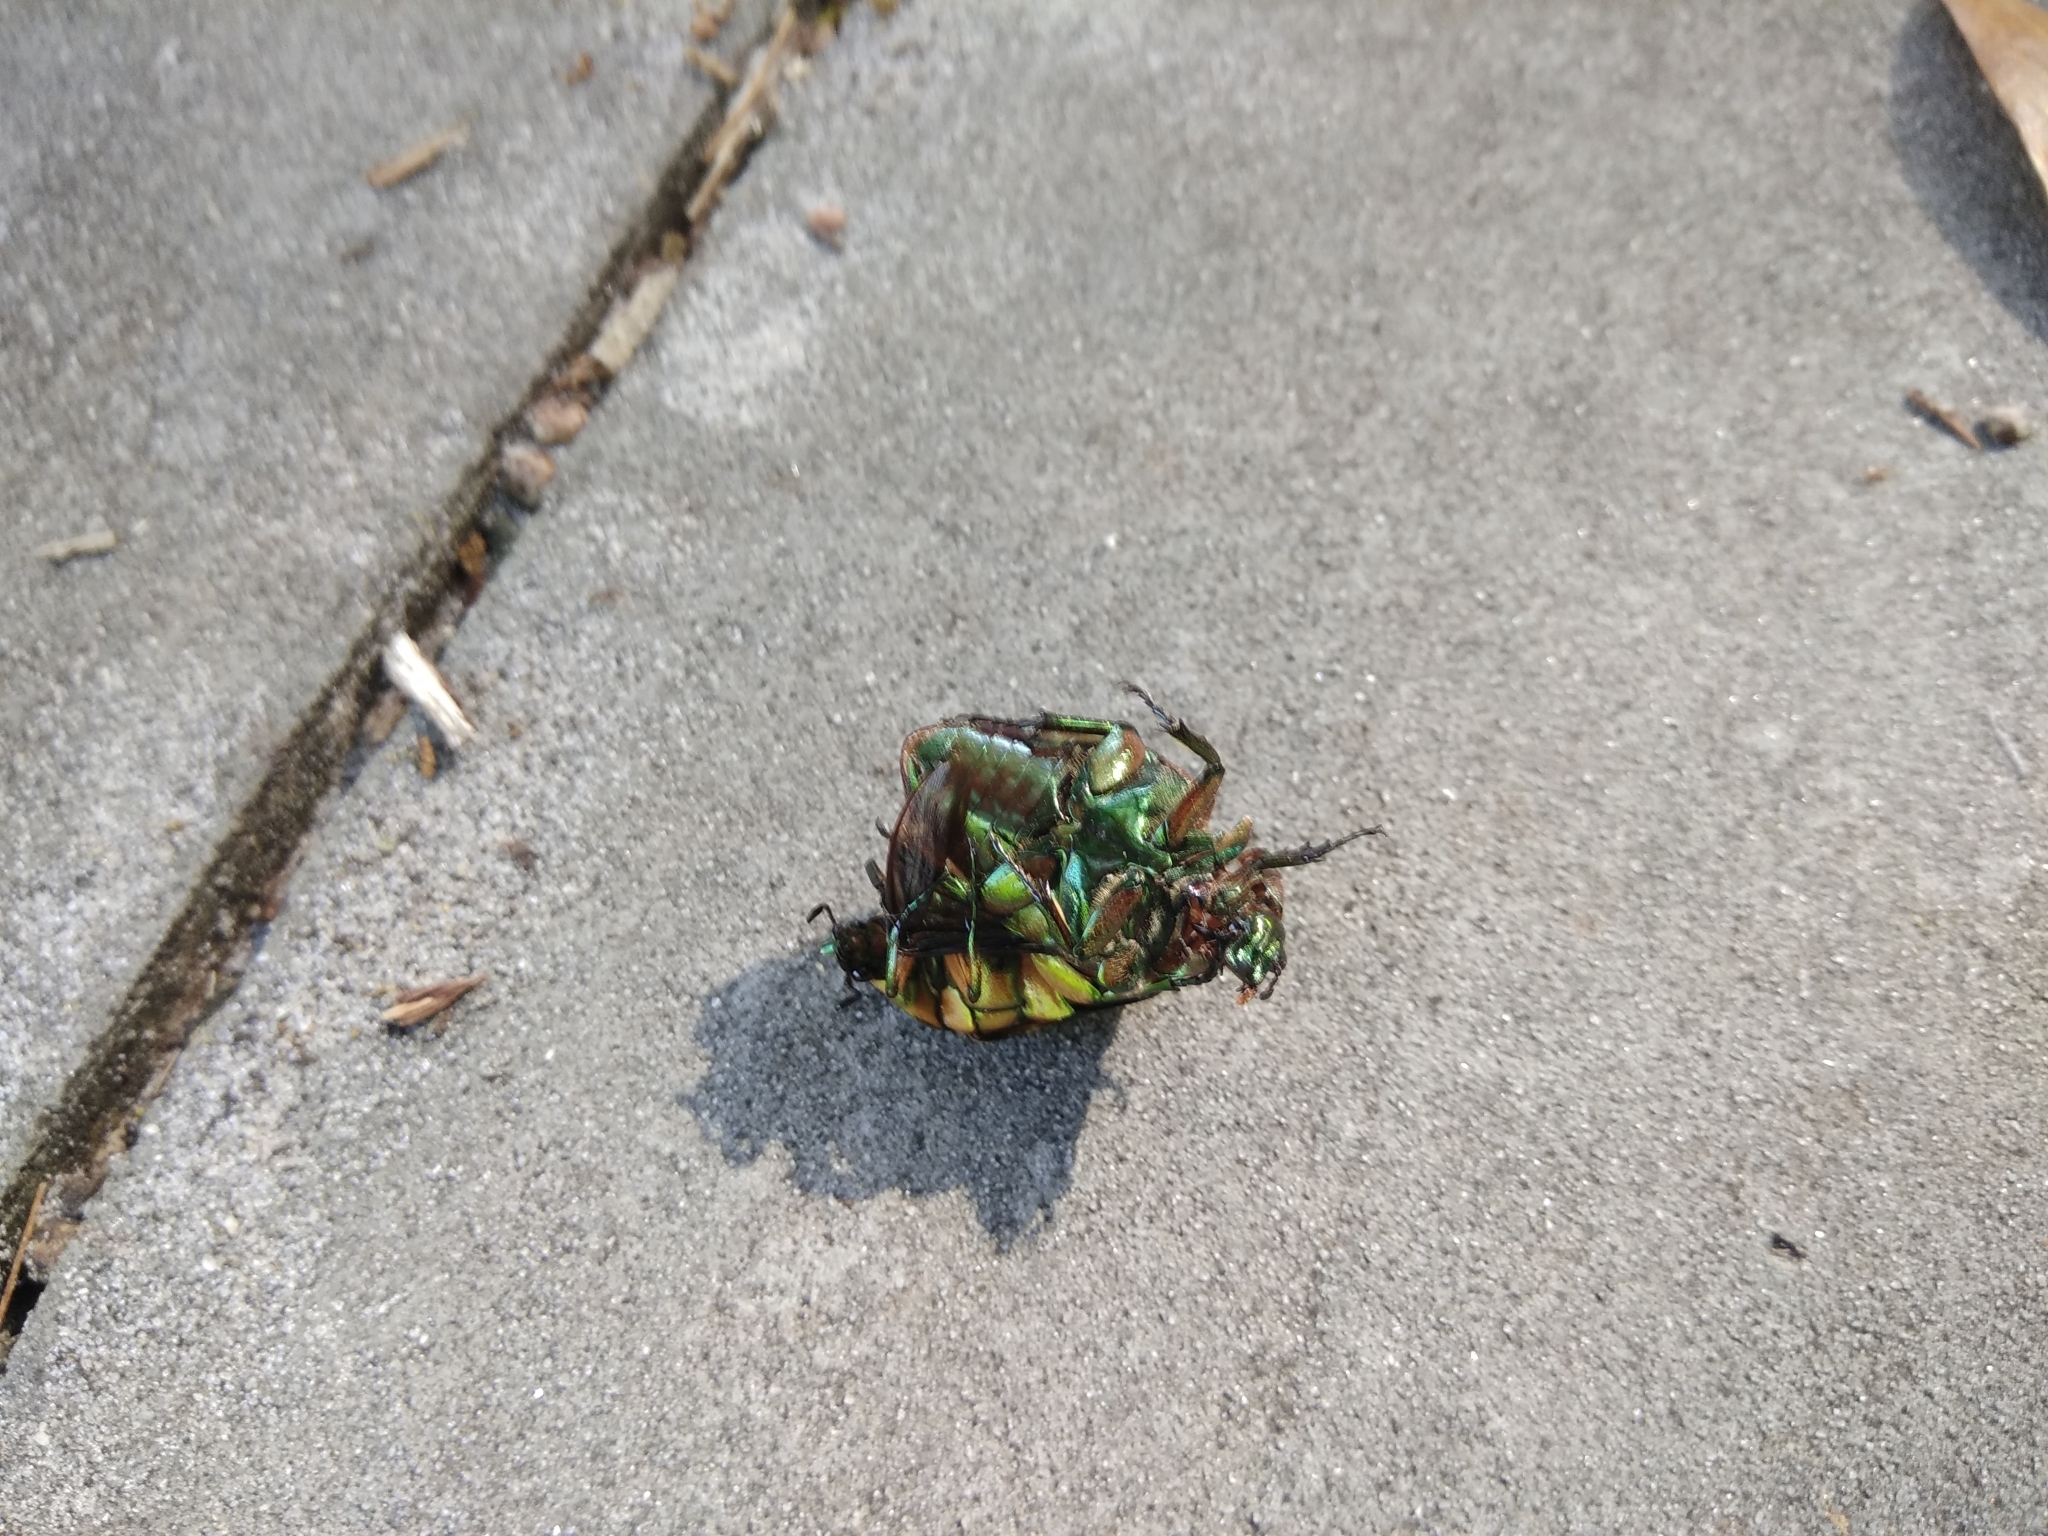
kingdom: Animalia
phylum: Arthropoda
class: Insecta
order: Coleoptera
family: Scarabaeidae
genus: Cotinis
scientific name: Cotinis nitida
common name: Common green june beetle
